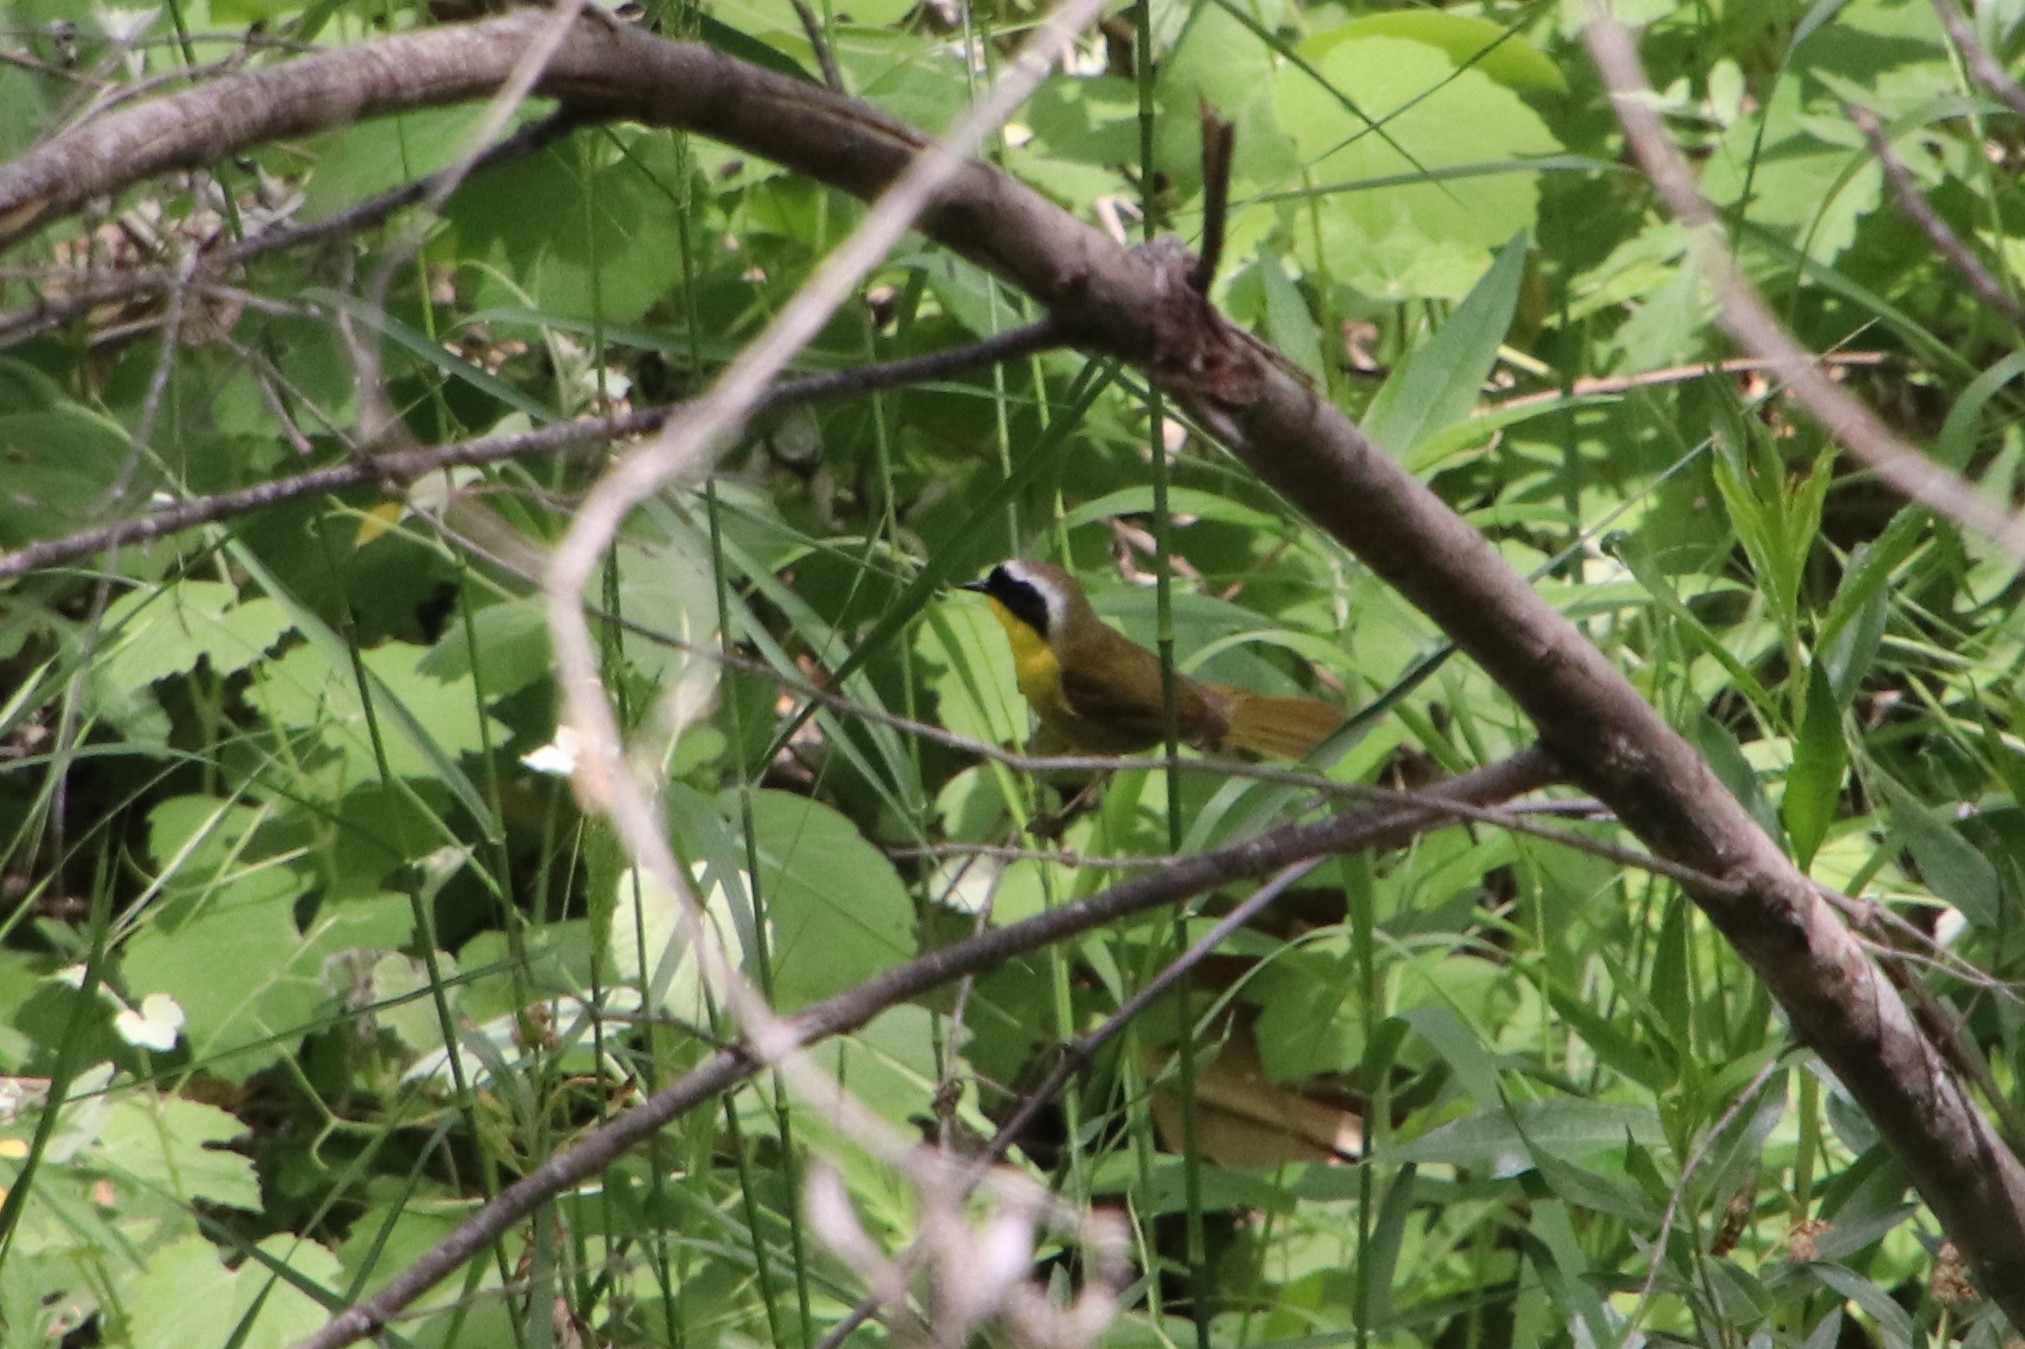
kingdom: Animalia
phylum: Chordata
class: Aves
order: Passeriformes
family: Parulidae
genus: Geothlypis
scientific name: Geothlypis trichas
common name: Common yellowthroat
